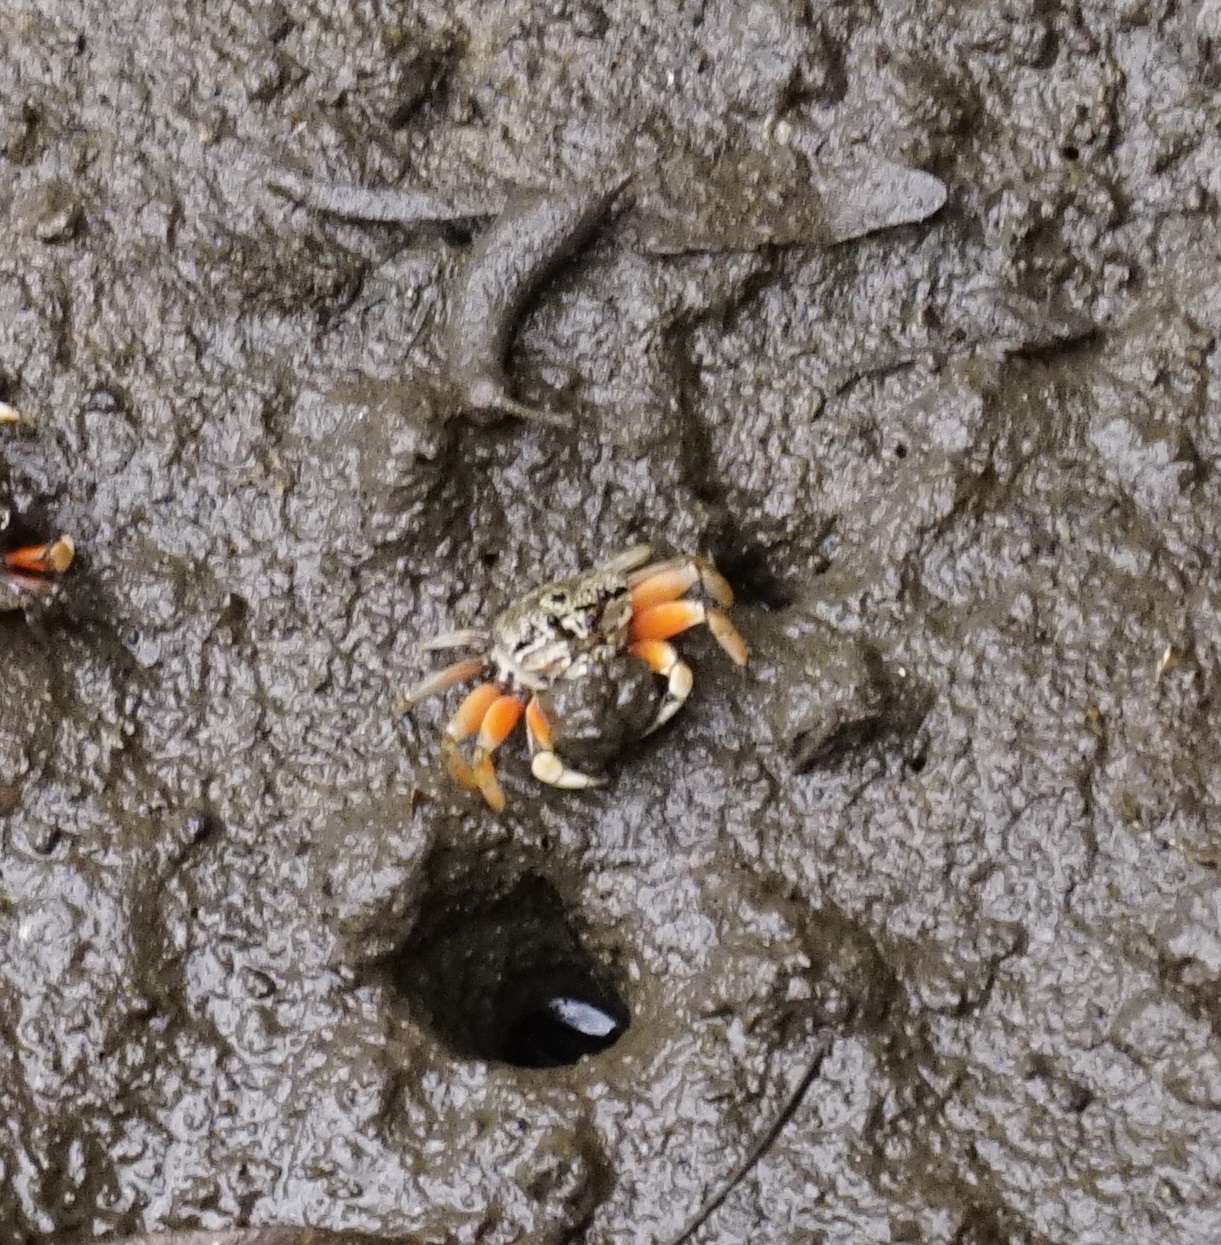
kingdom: Animalia
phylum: Arthropoda
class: Malacostraca
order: Decapoda
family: Heloeciidae
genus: Heloecius
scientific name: Heloecius cordiformis
